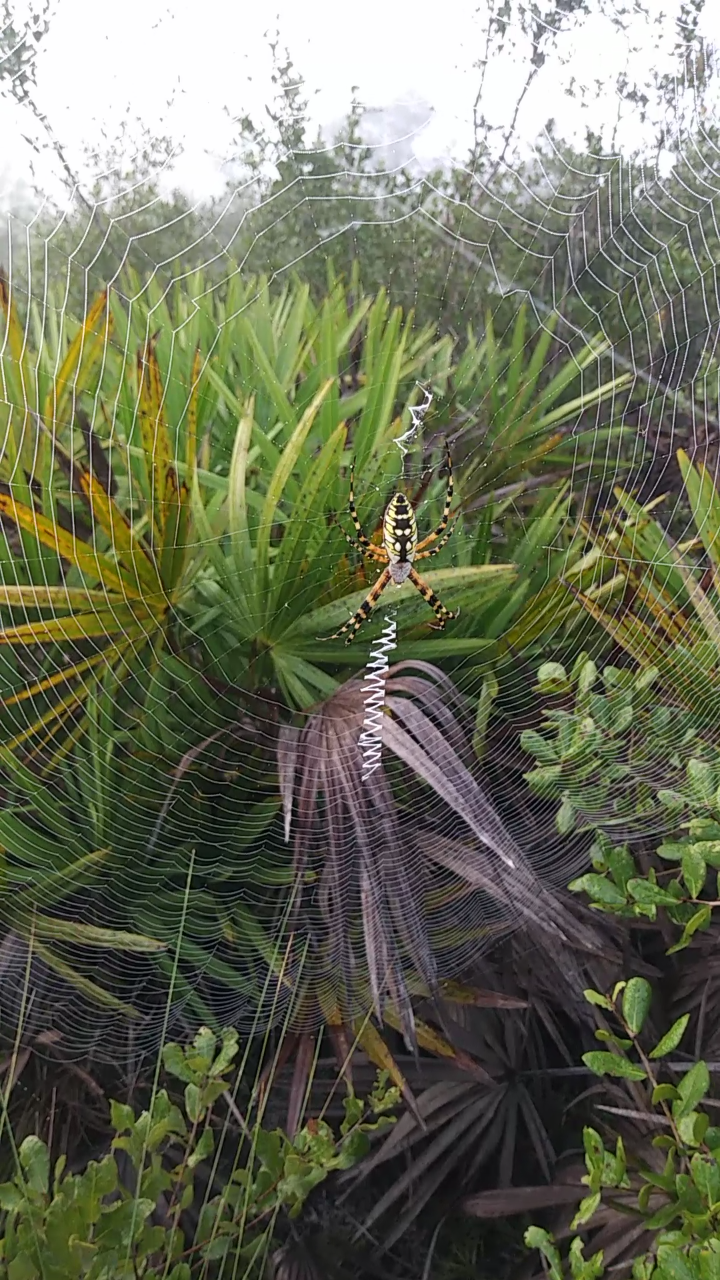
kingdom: Animalia
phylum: Arthropoda
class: Arachnida
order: Araneae
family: Araneidae
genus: Argiope
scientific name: Argiope aurantia
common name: Orb weavers
